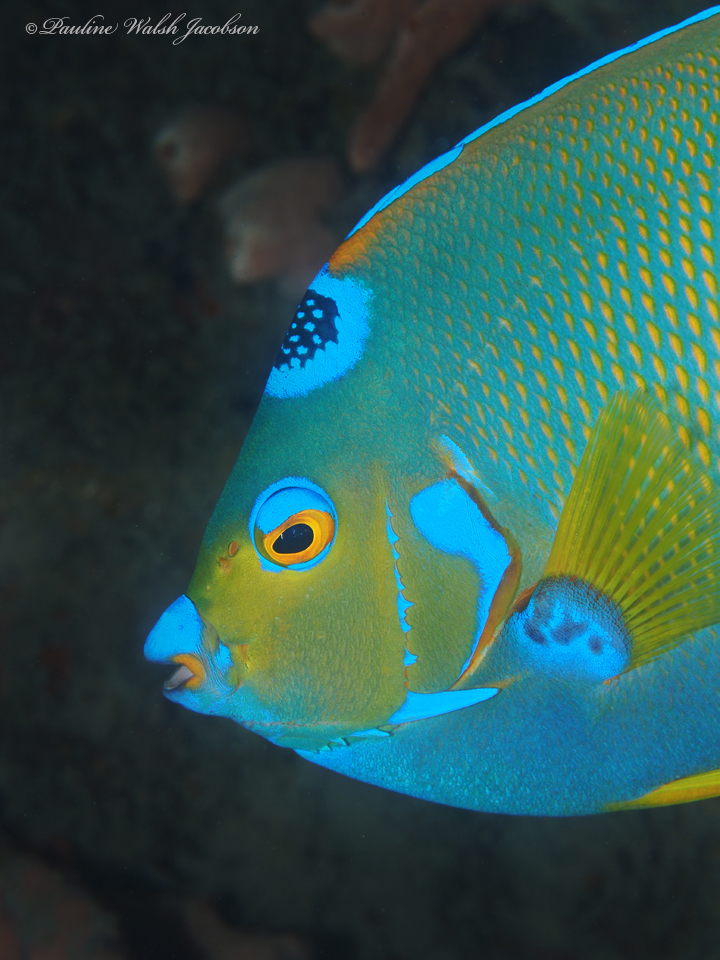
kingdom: Animalia
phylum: Chordata
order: Perciformes
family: Pomacanthidae
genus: Holacanthus
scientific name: Holacanthus ciliaris
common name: Queen angelfish
